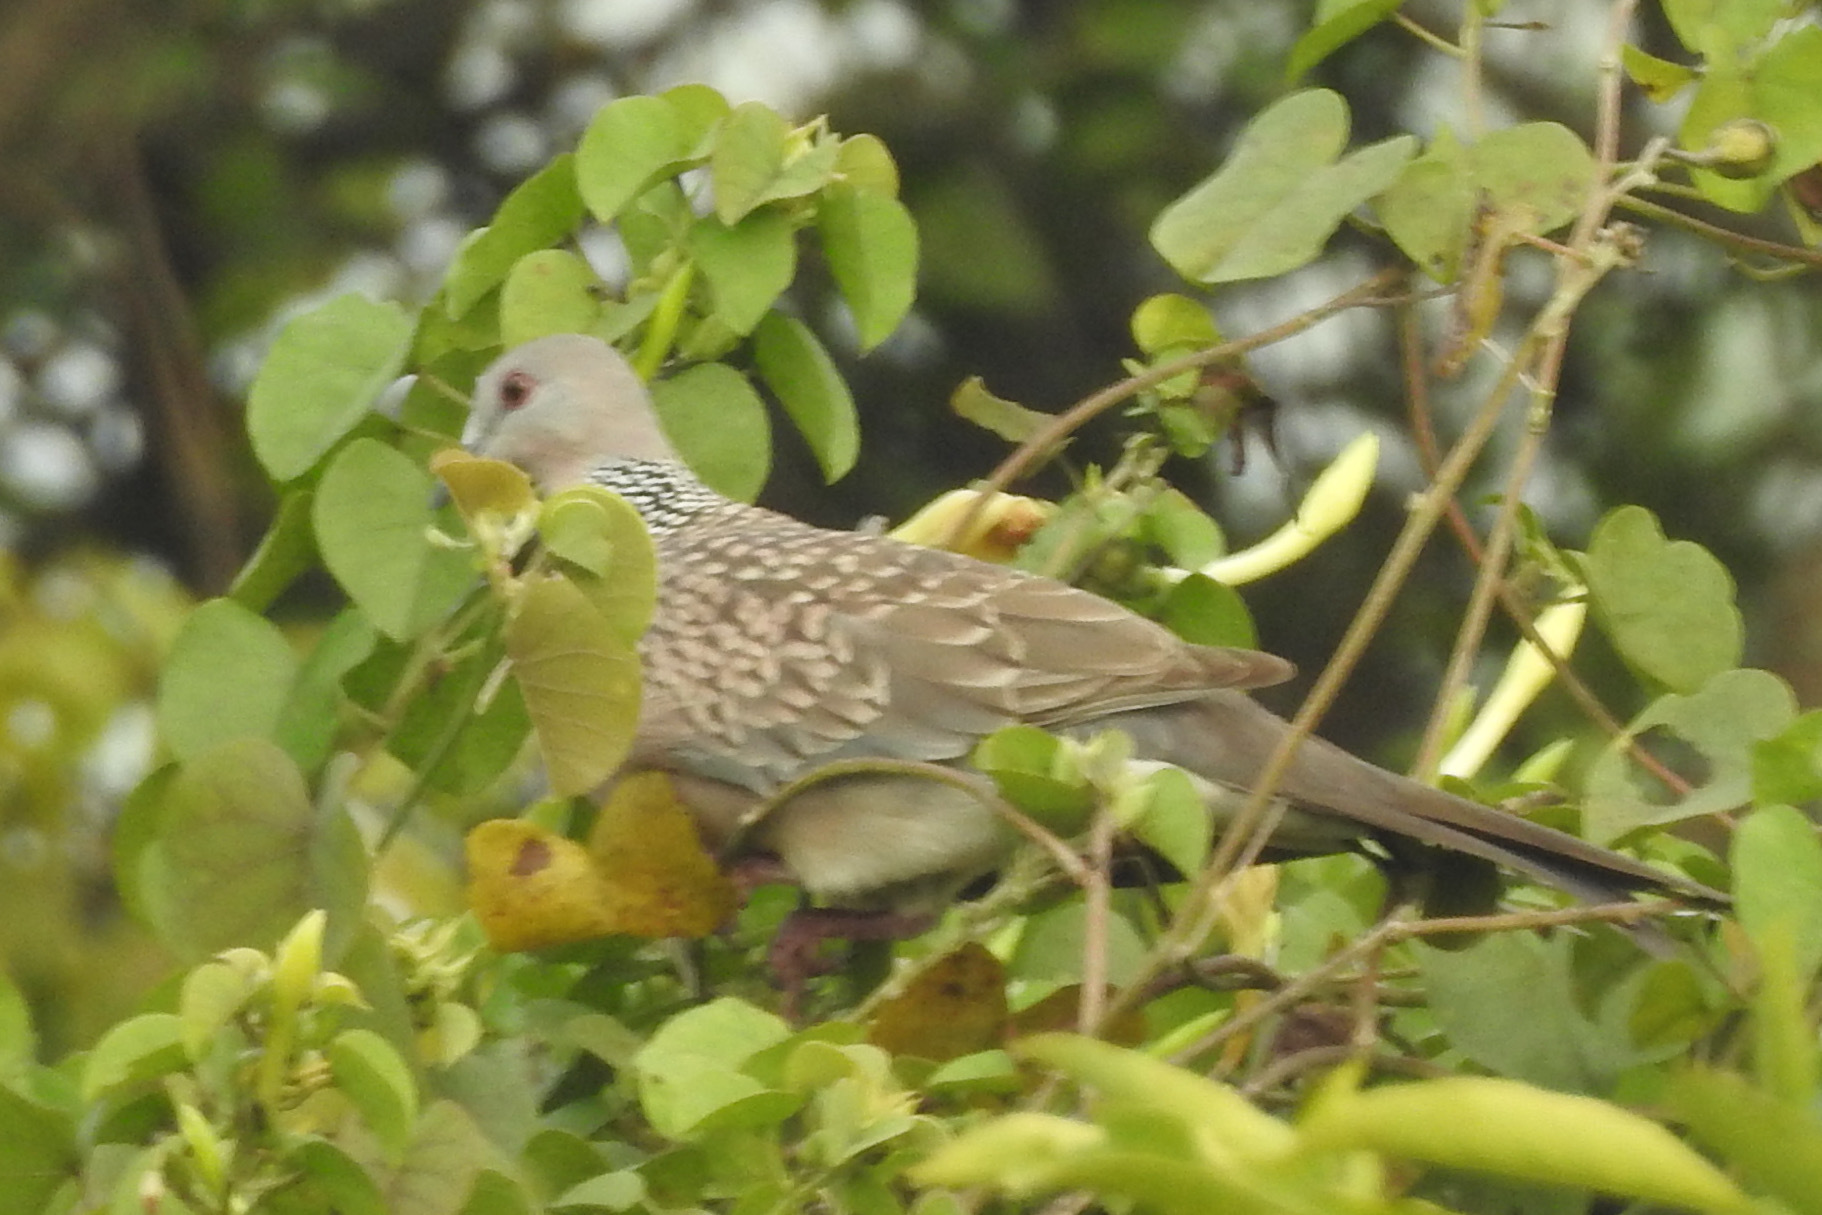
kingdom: Animalia
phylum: Chordata
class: Aves
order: Columbiformes
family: Columbidae
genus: Spilopelia
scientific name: Spilopelia chinensis
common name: Spotted dove
